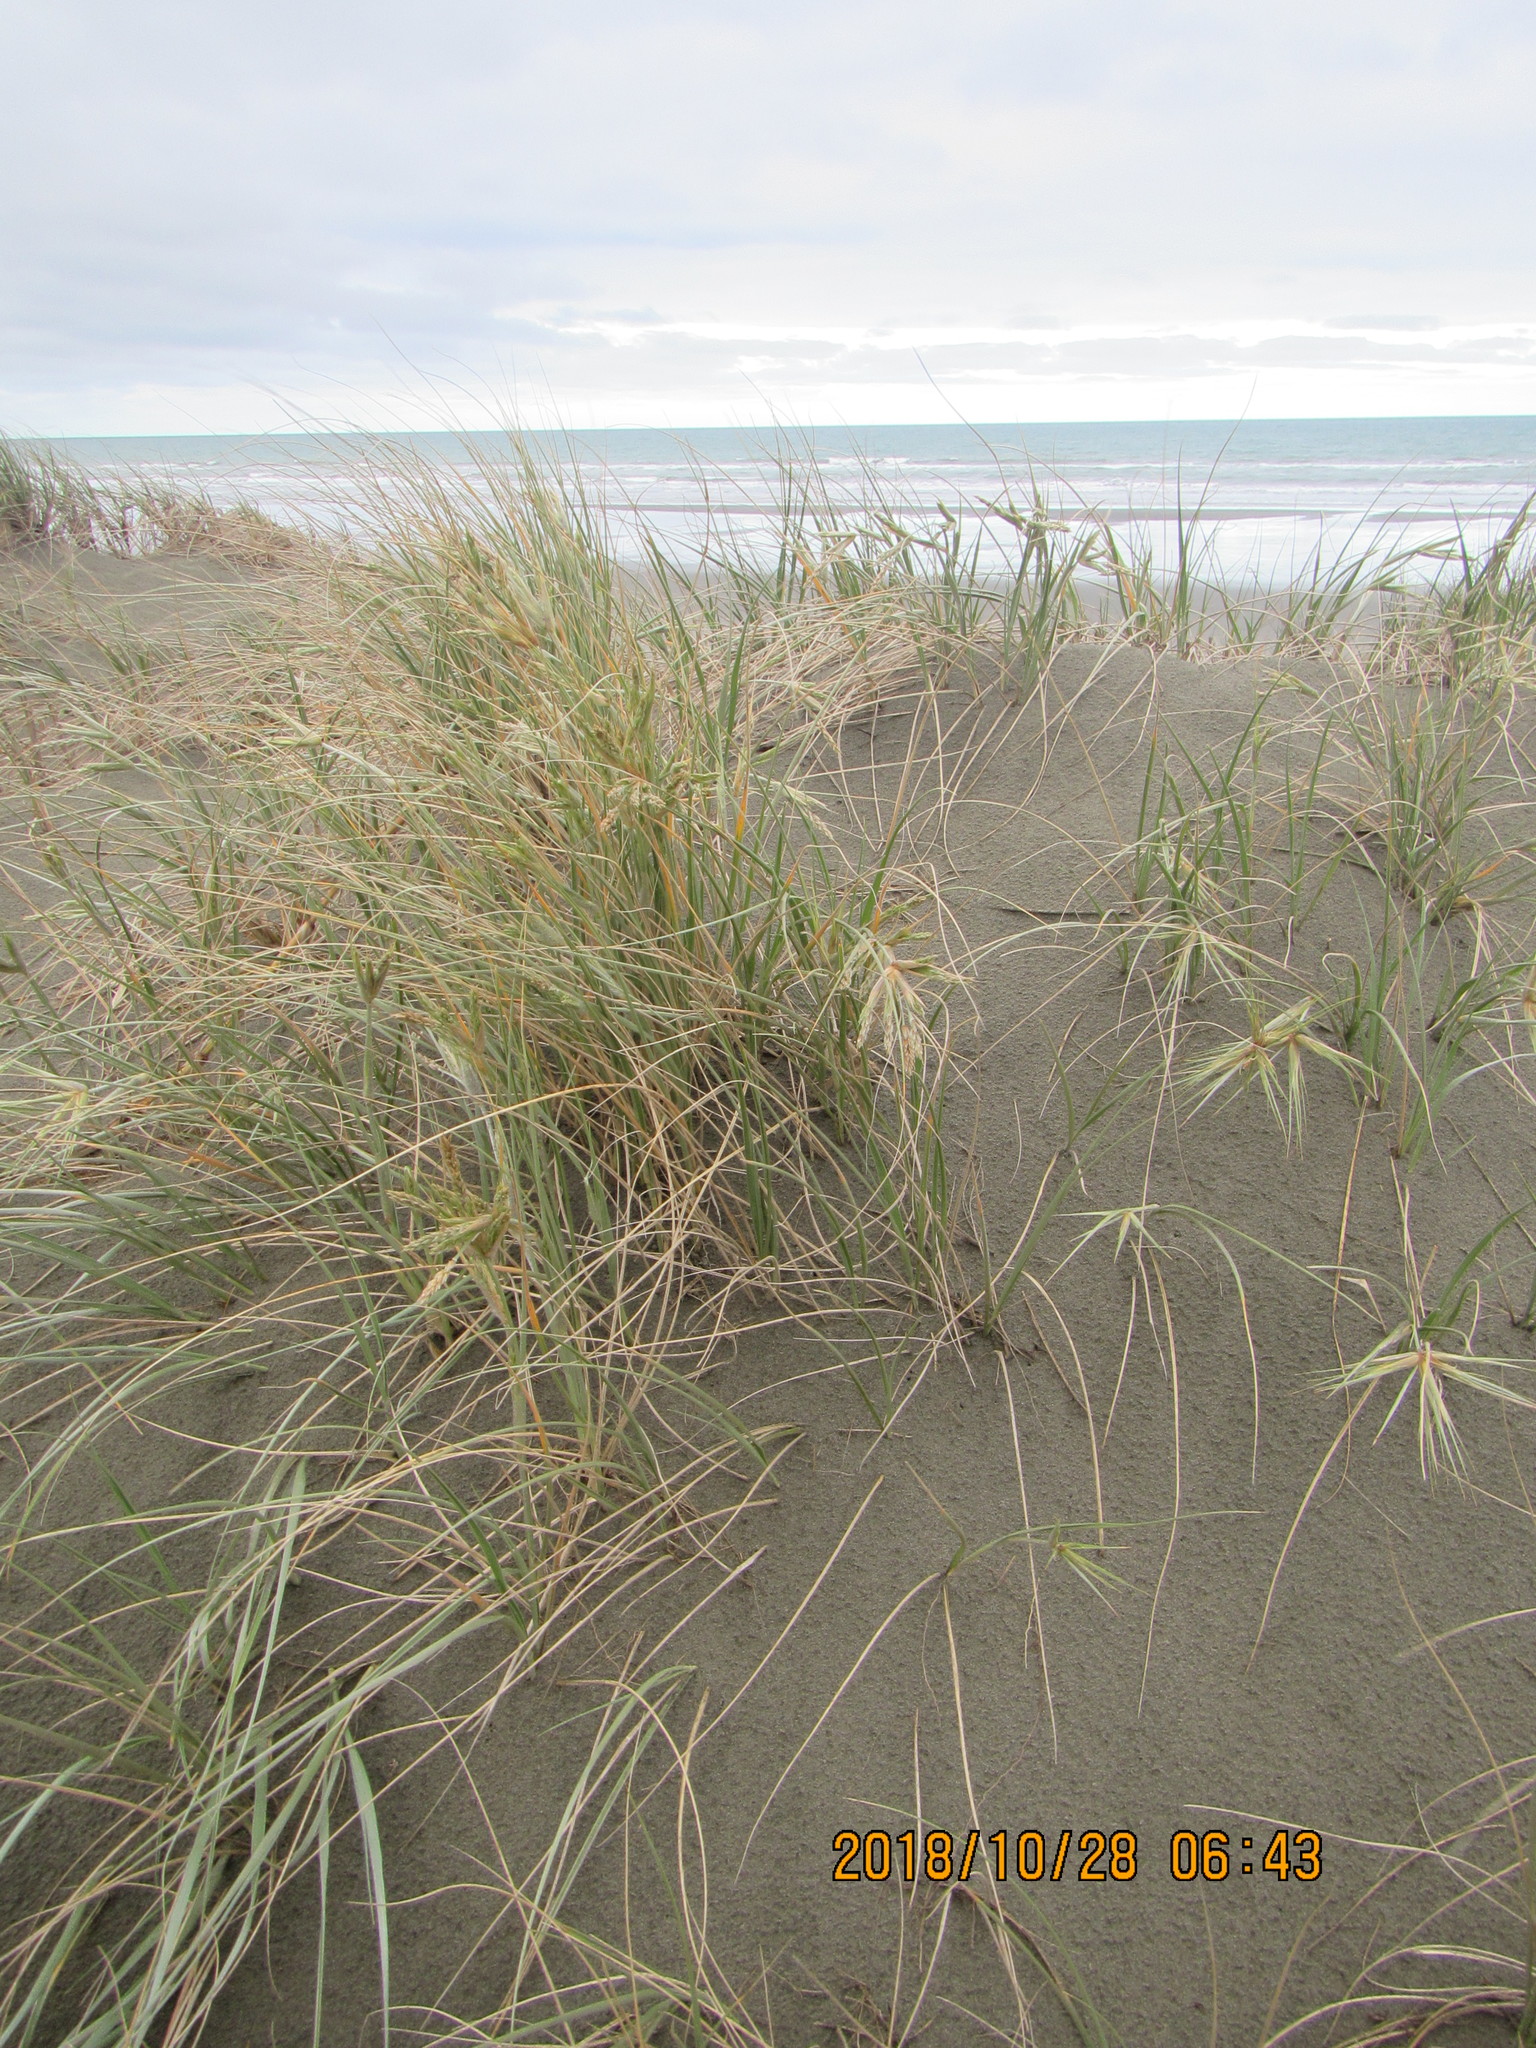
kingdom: Plantae
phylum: Tracheophyta
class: Liliopsida
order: Poales
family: Poaceae
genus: Spinifex
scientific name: Spinifex sericeus
